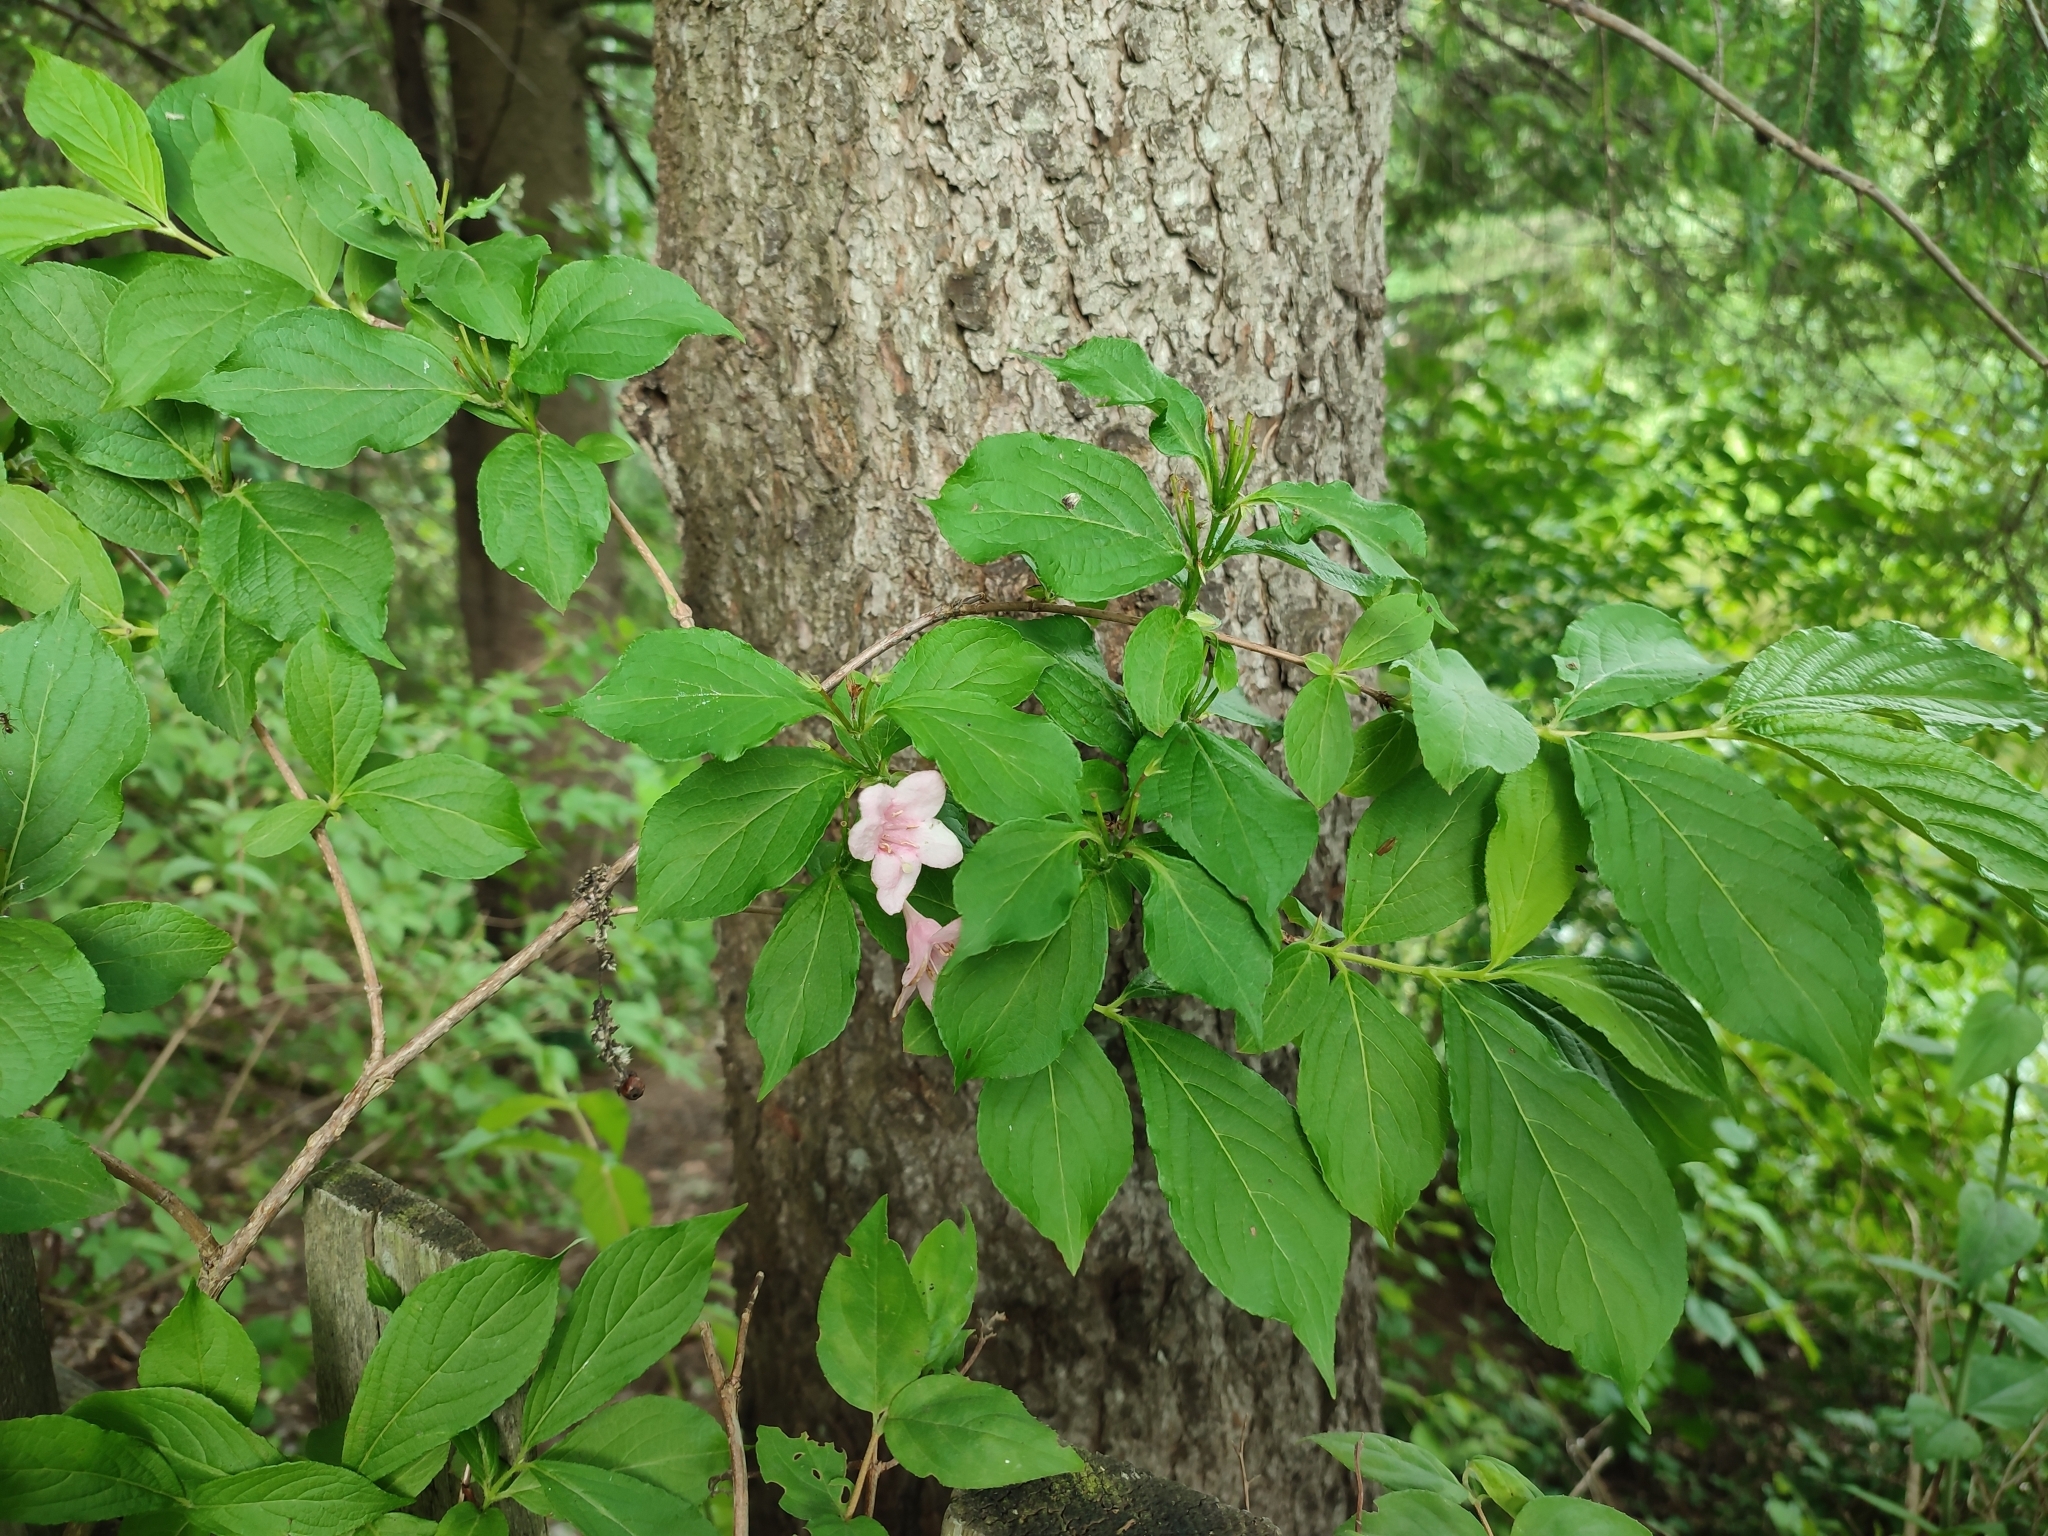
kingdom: Plantae
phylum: Tracheophyta
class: Magnoliopsida
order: Dipsacales
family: Caprifoliaceae
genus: Weigela
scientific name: Weigela florida
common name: Weigelia
